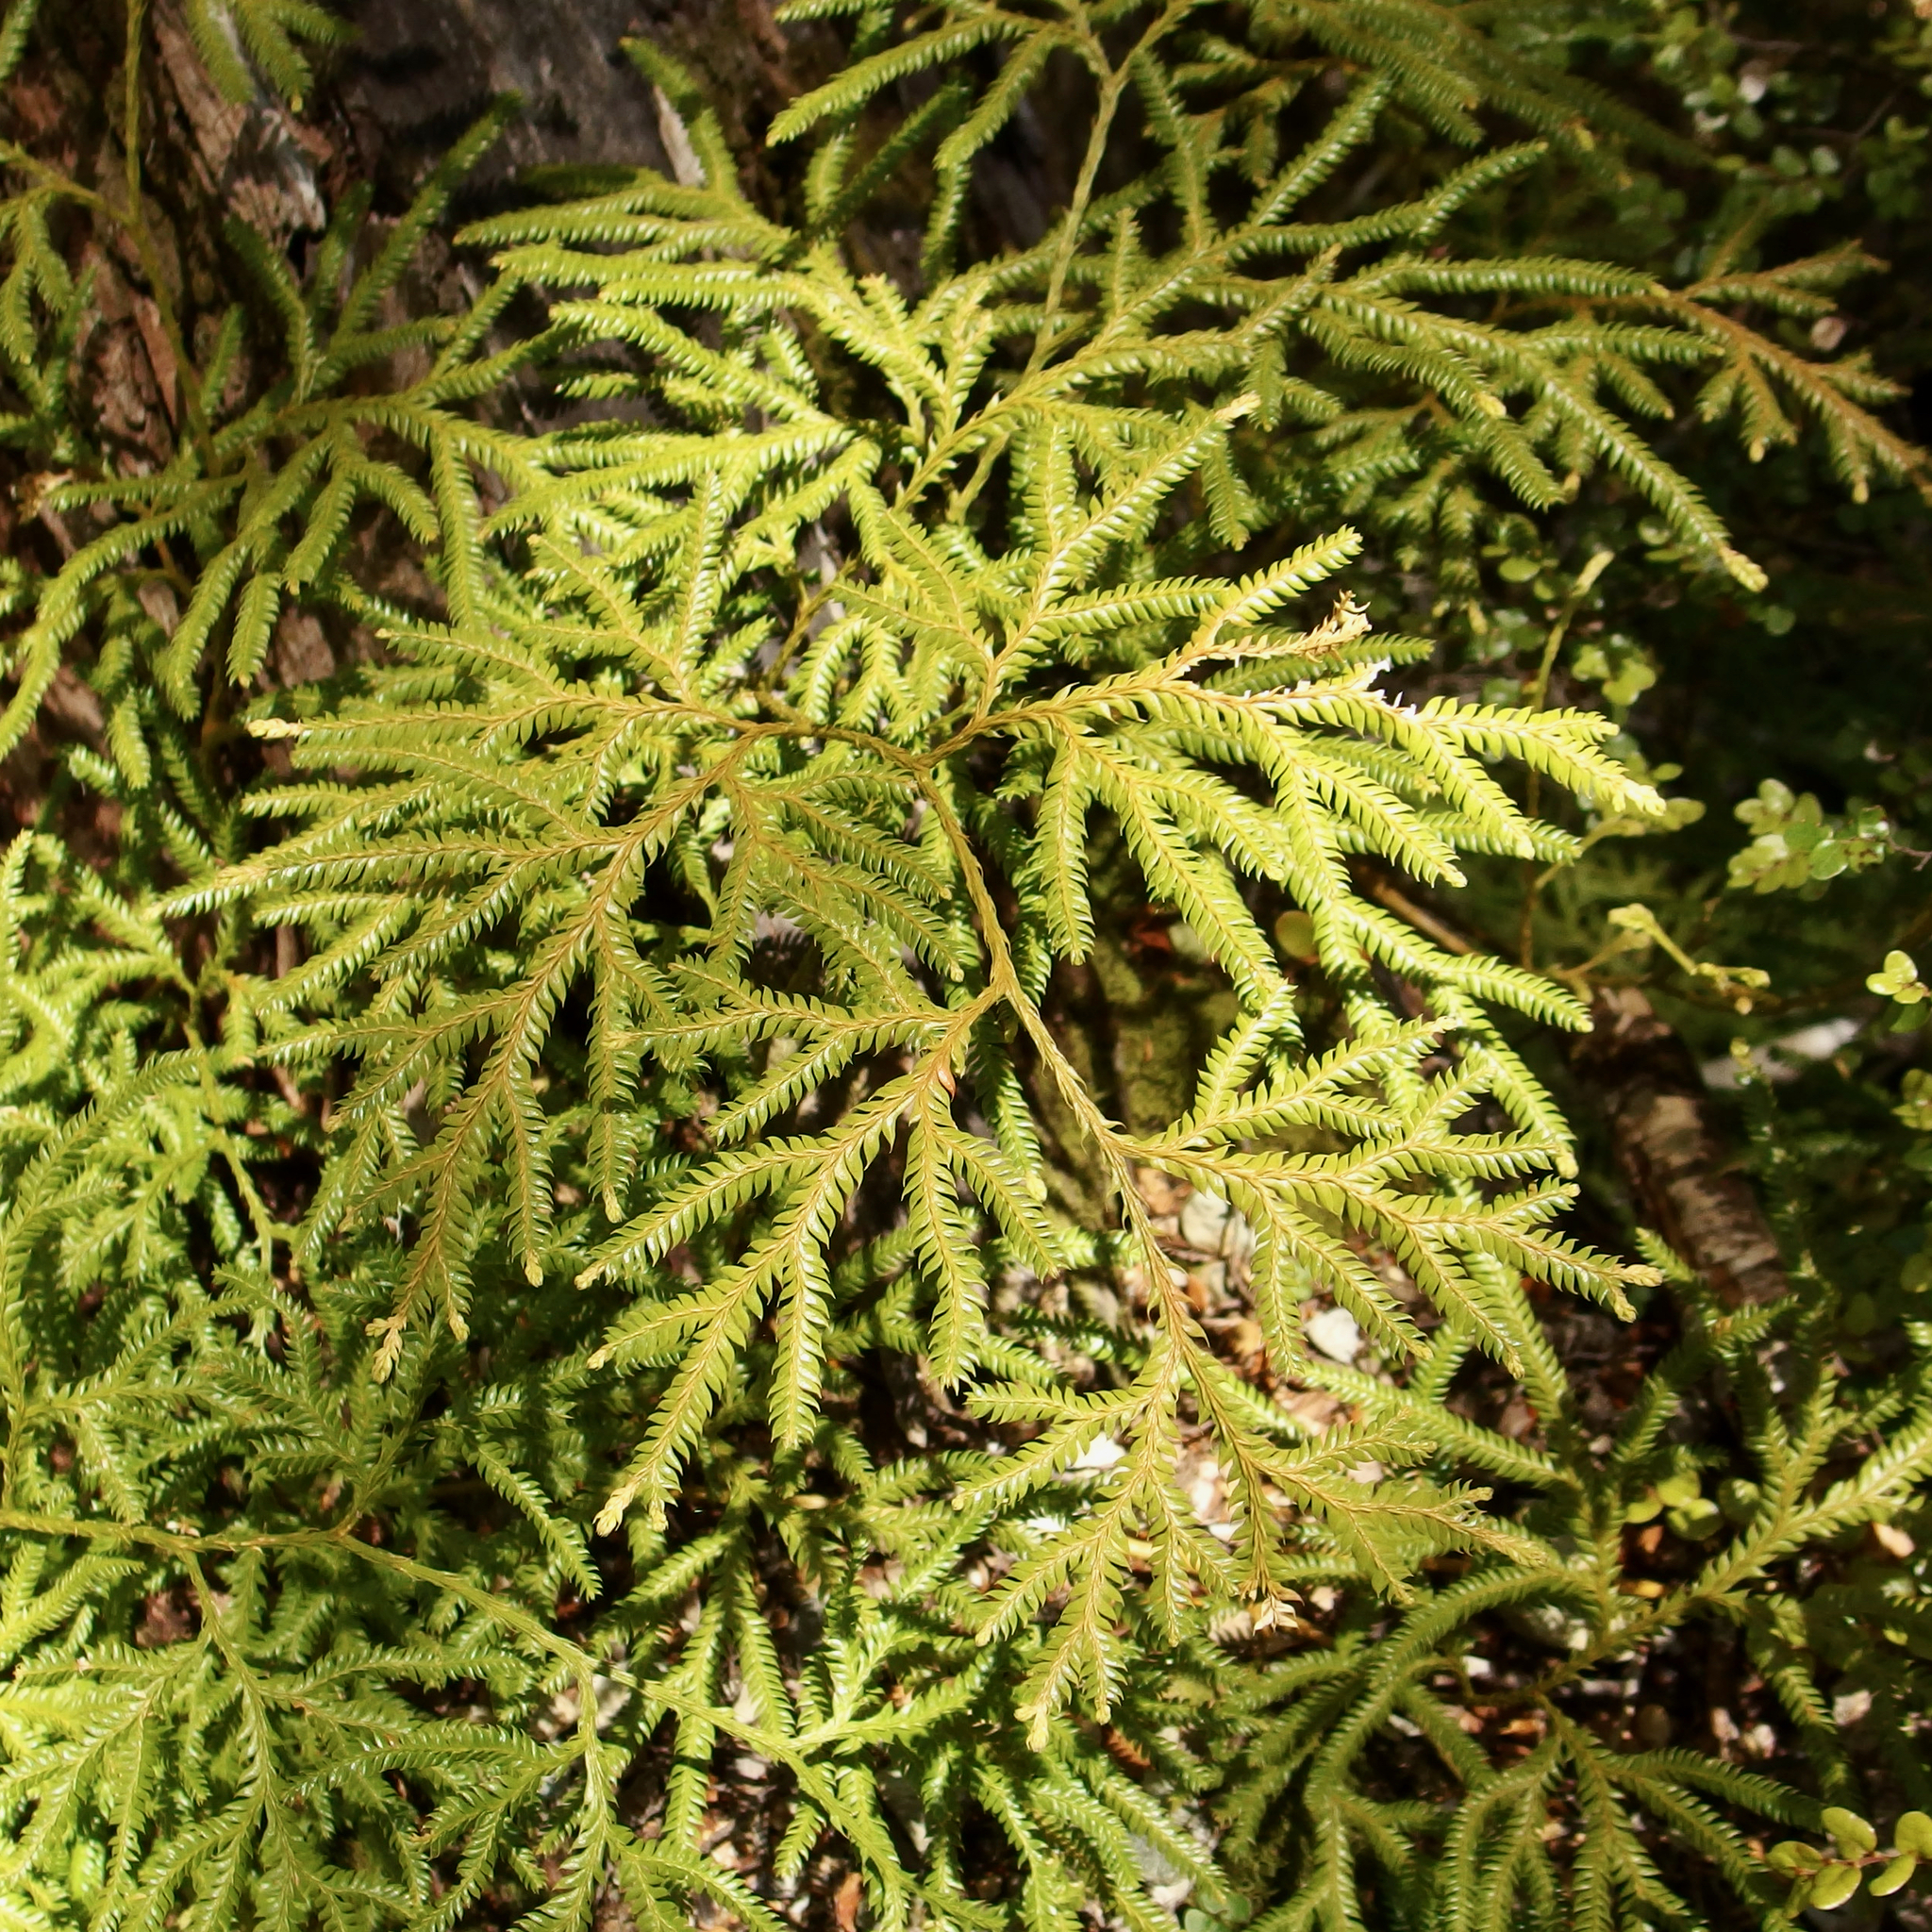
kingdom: Plantae
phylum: Tracheophyta
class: Lycopodiopsida
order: Lycopodiales
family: Lycopodiaceae
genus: Lycopodium
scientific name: Lycopodium volubile
